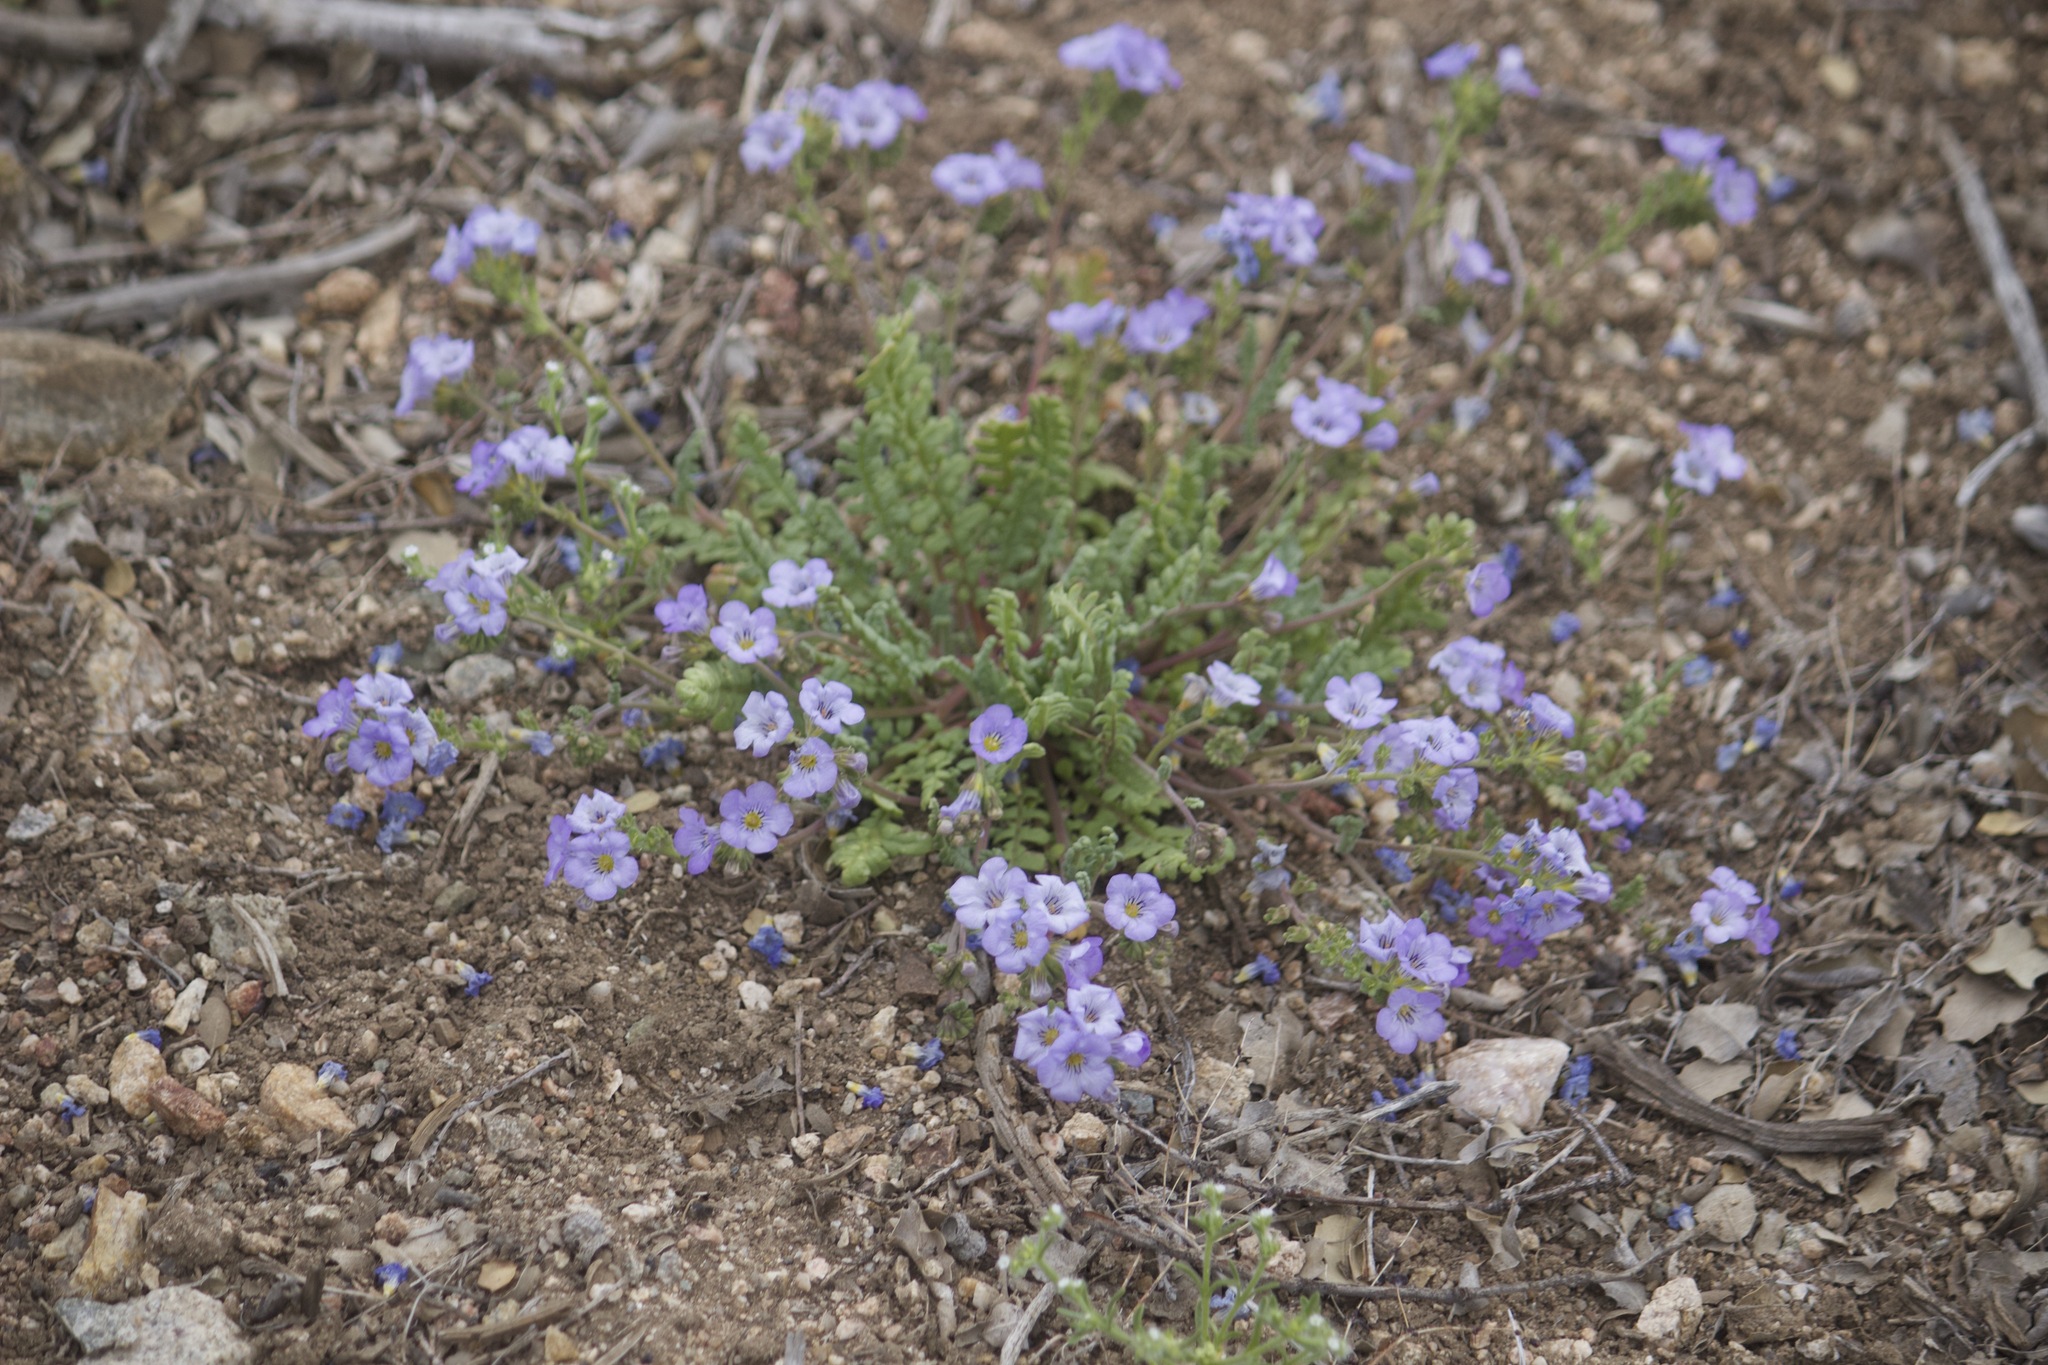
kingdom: Plantae
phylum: Tracheophyta
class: Magnoliopsida
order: Boraginales
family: Hydrophyllaceae
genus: Phacelia
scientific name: Phacelia fremontii
